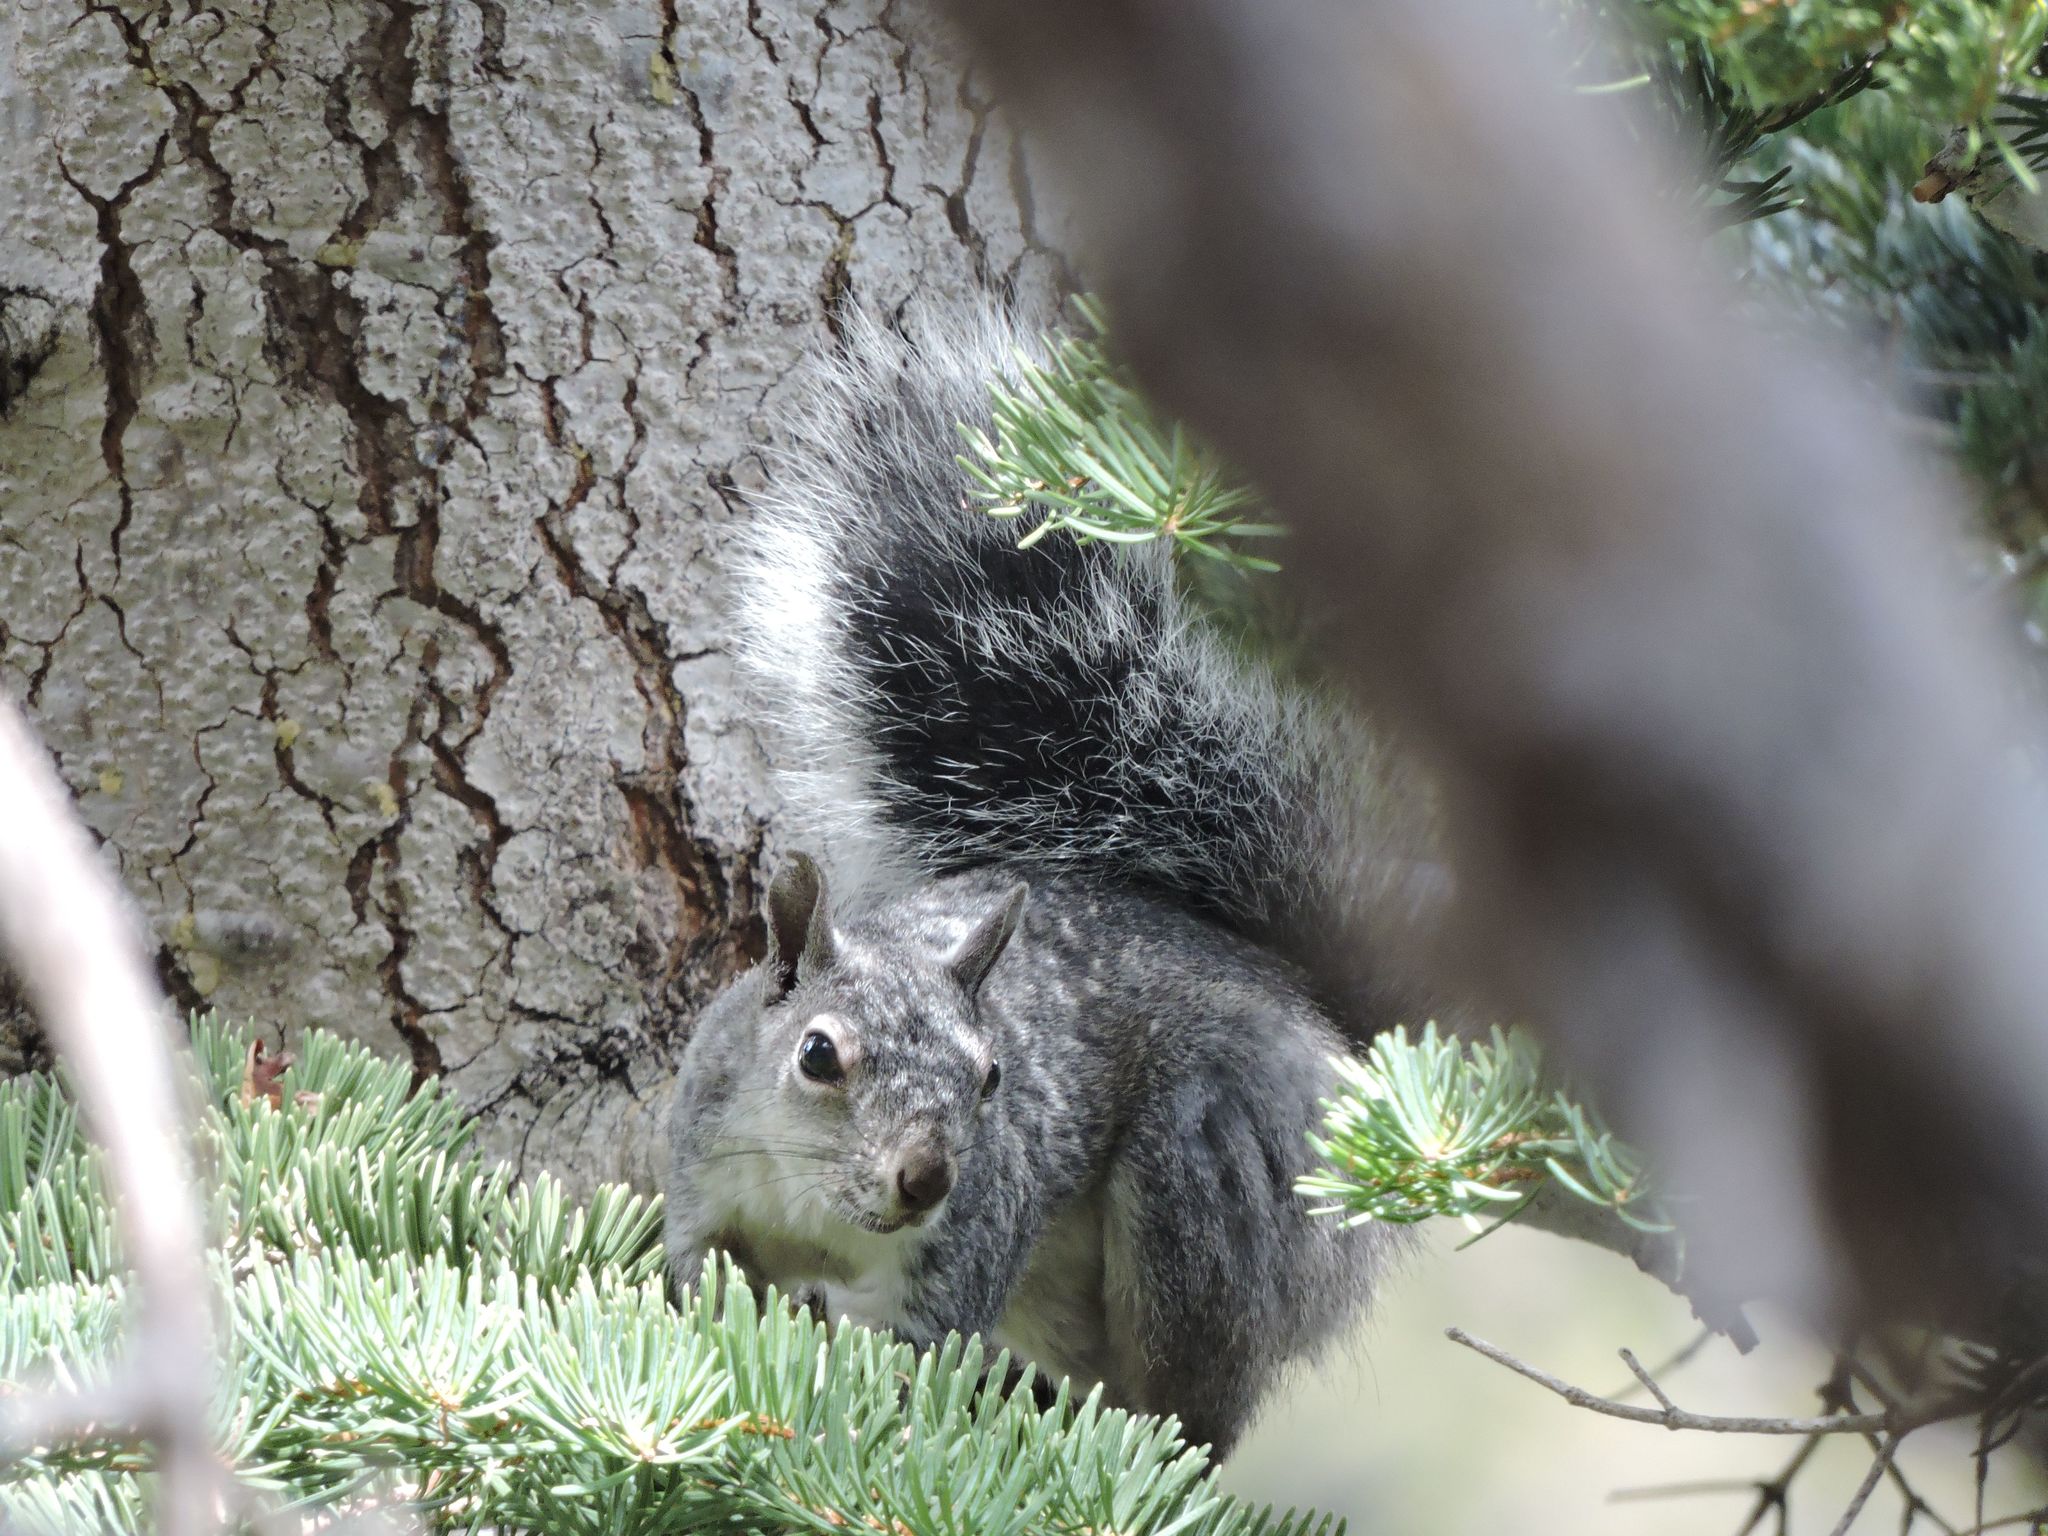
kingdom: Animalia
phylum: Chordata
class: Mammalia
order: Rodentia
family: Sciuridae
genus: Sciurus
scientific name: Sciurus griseus
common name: Western gray squirrel
